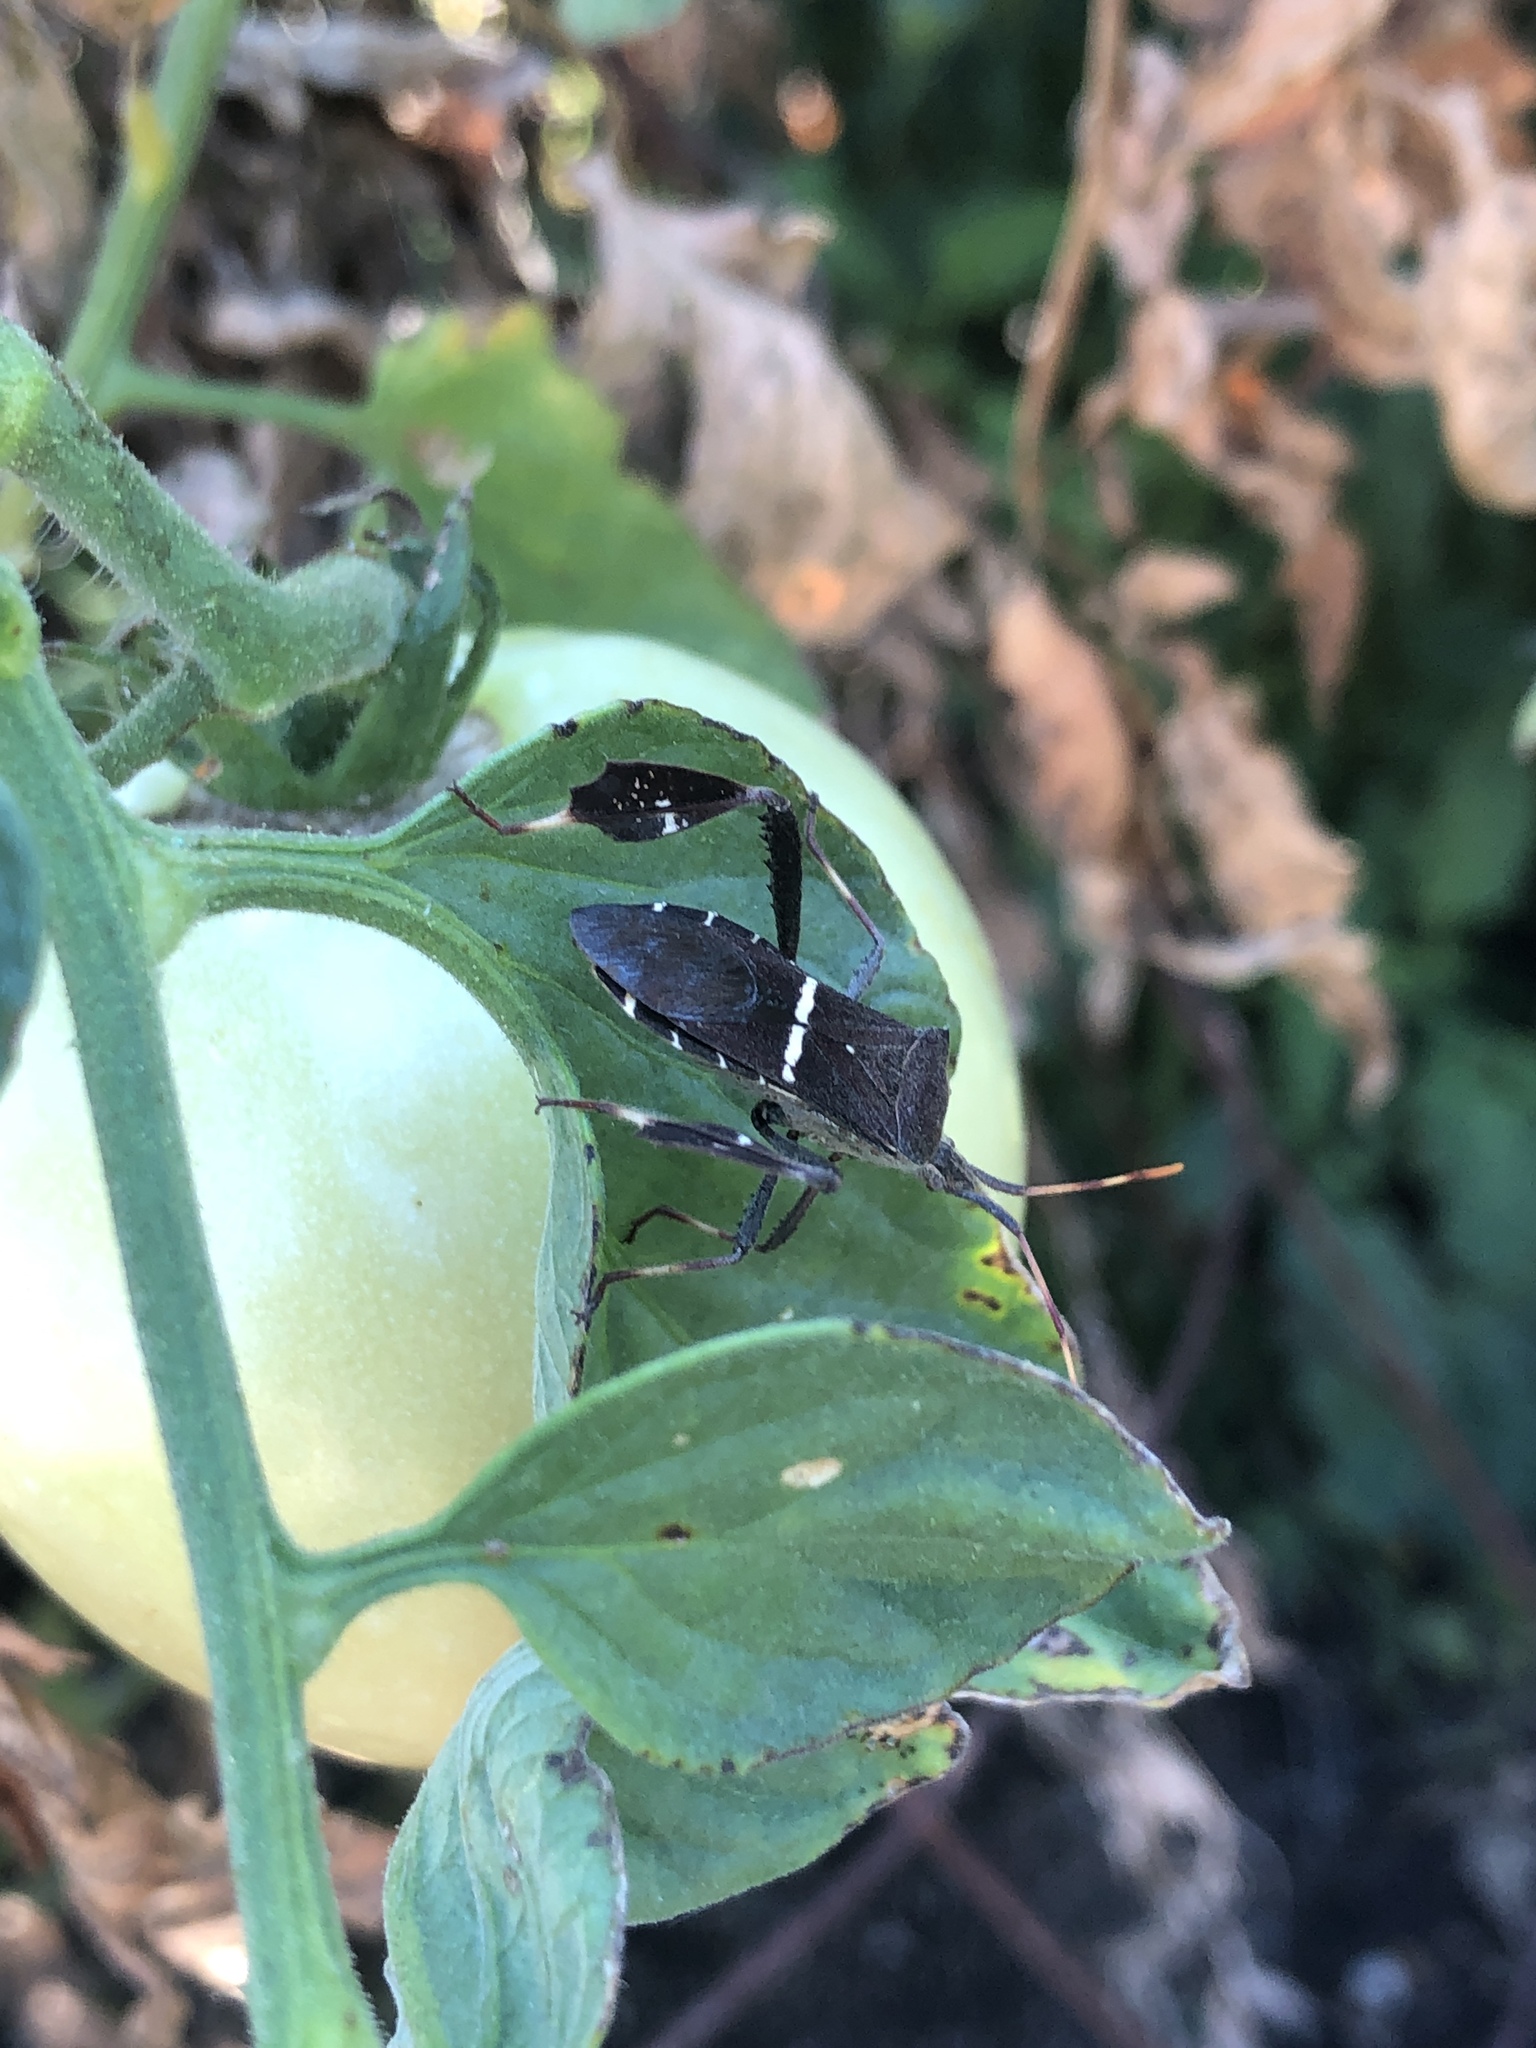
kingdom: Animalia
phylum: Arthropoda
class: Insecta
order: Hemiptera
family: Coreidae
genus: Leptoglossus
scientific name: Leptoglossus phyllopus
